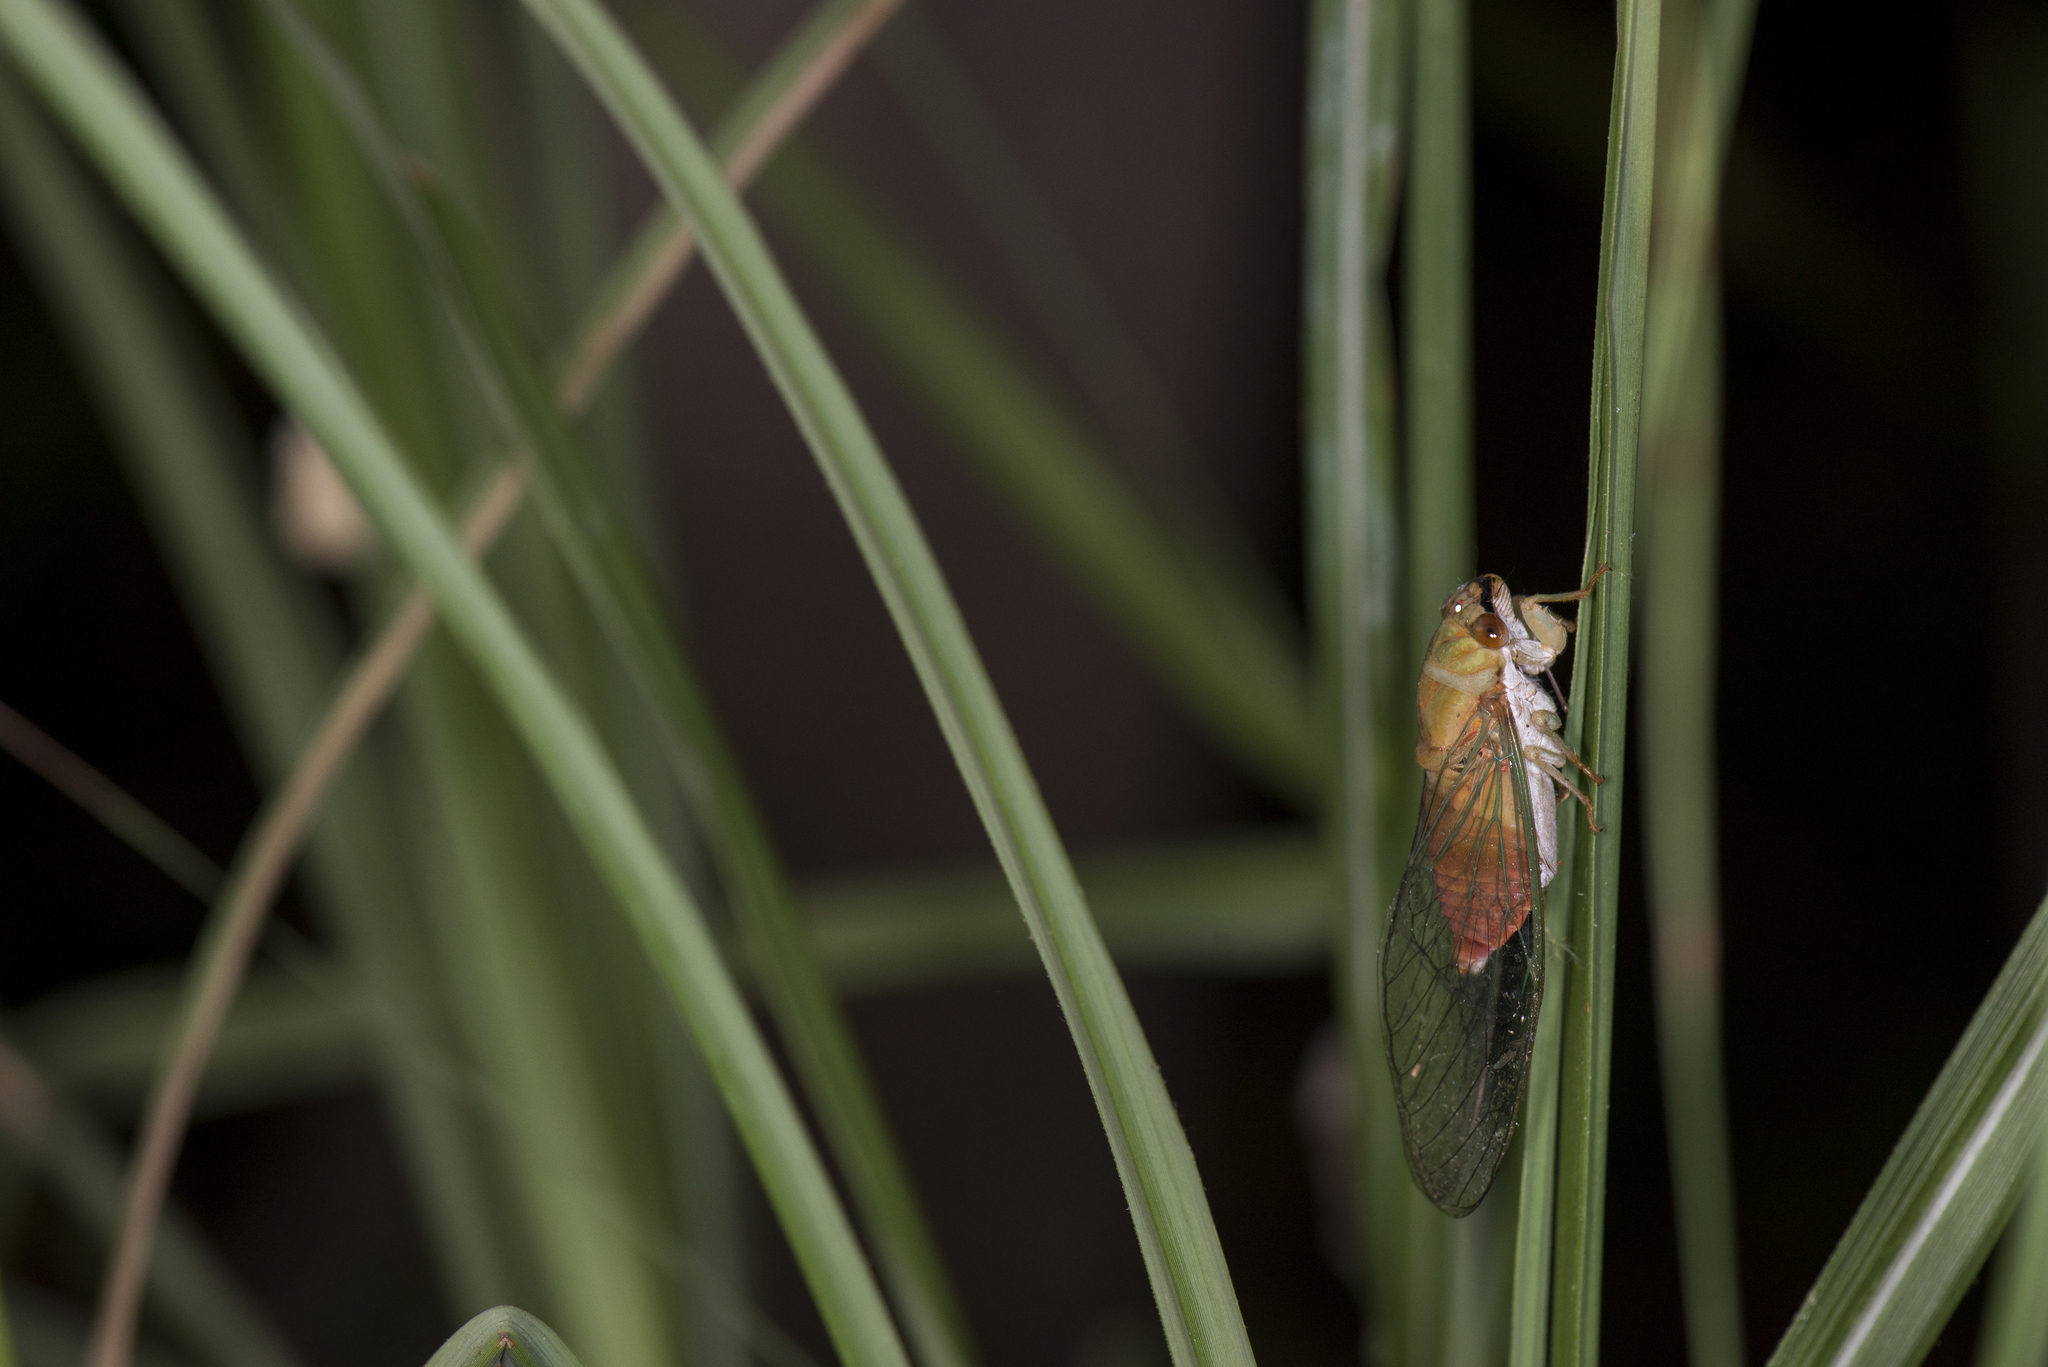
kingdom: Animalia
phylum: Arthropoda
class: Insecta
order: Hemiptera
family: Cicadidae
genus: Chremistica
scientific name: Chremistica ochracea
